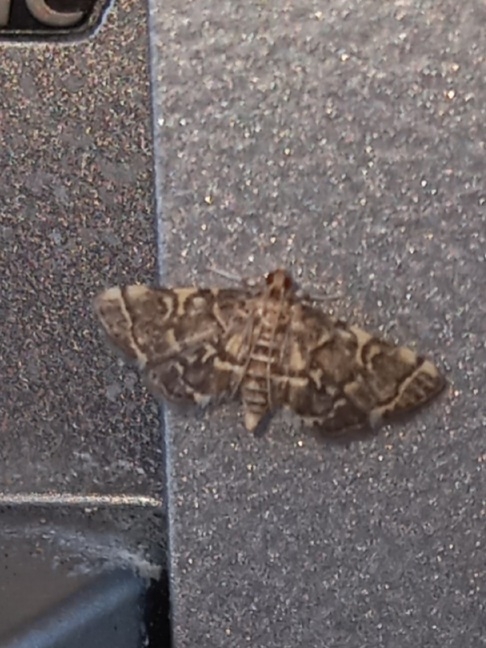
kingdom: Animalia
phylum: Arthropoda
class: Insecta
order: Lepidoptera
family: Crambidae
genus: Anageshna
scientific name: Anageshna primordialis
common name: Yellow-spotted webworm moth
